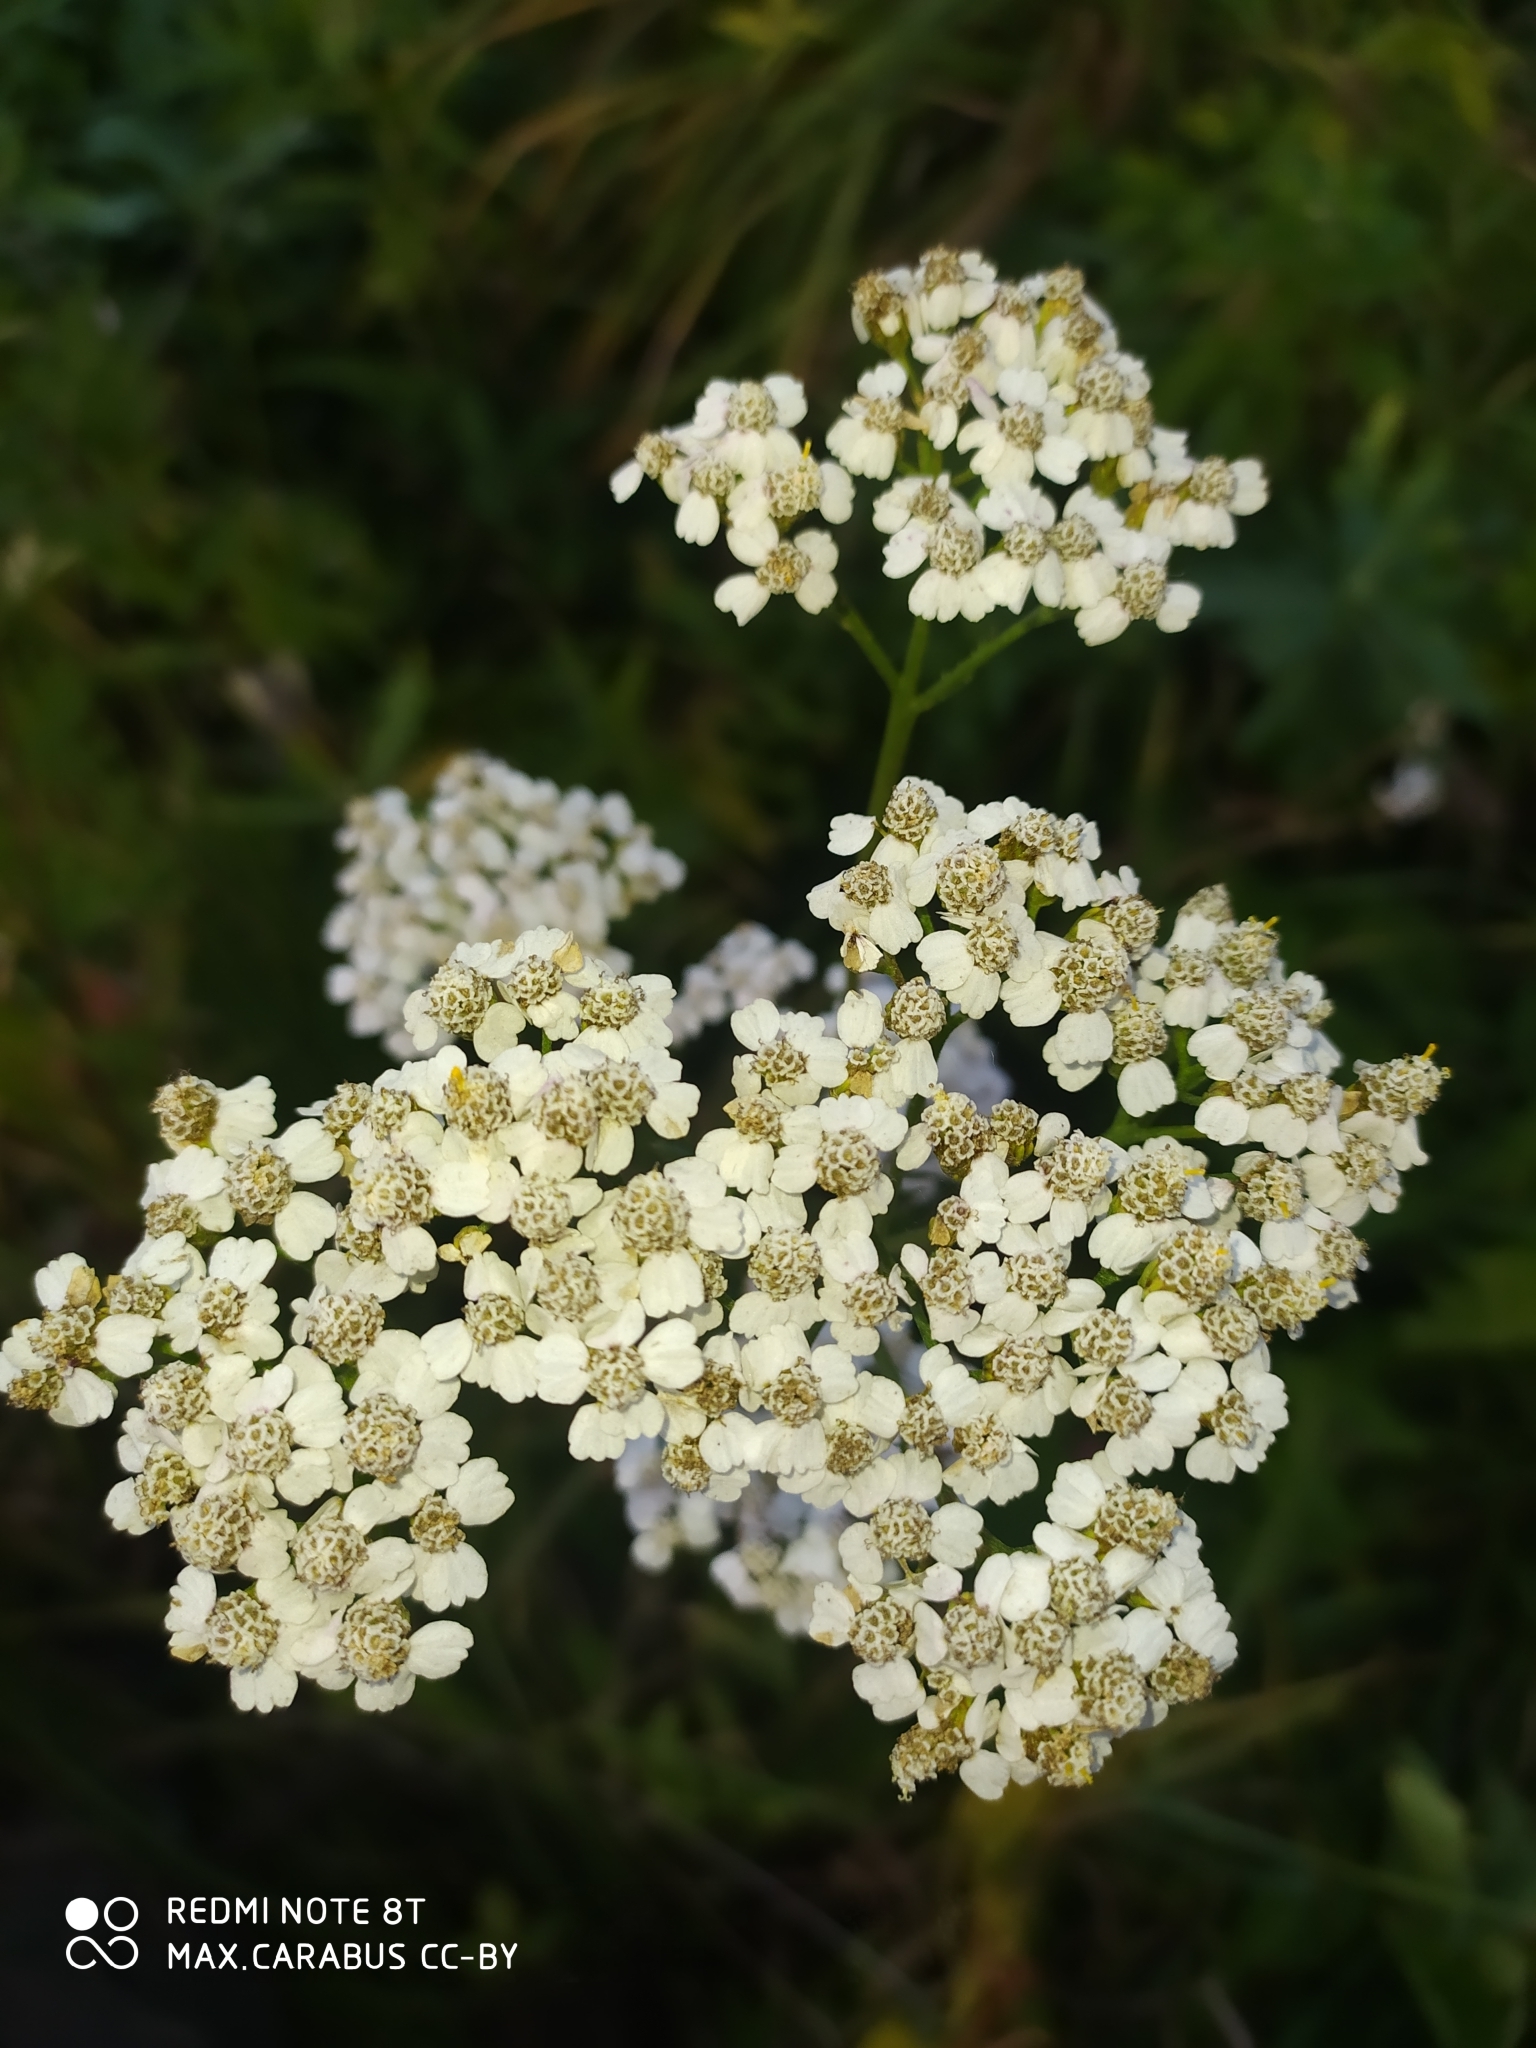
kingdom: Plantae
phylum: Tracheophyta
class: Magnoliopsida
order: Asterales
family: Asteraceae
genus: Achillea
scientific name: Achillea millefolium
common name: Yarrow
